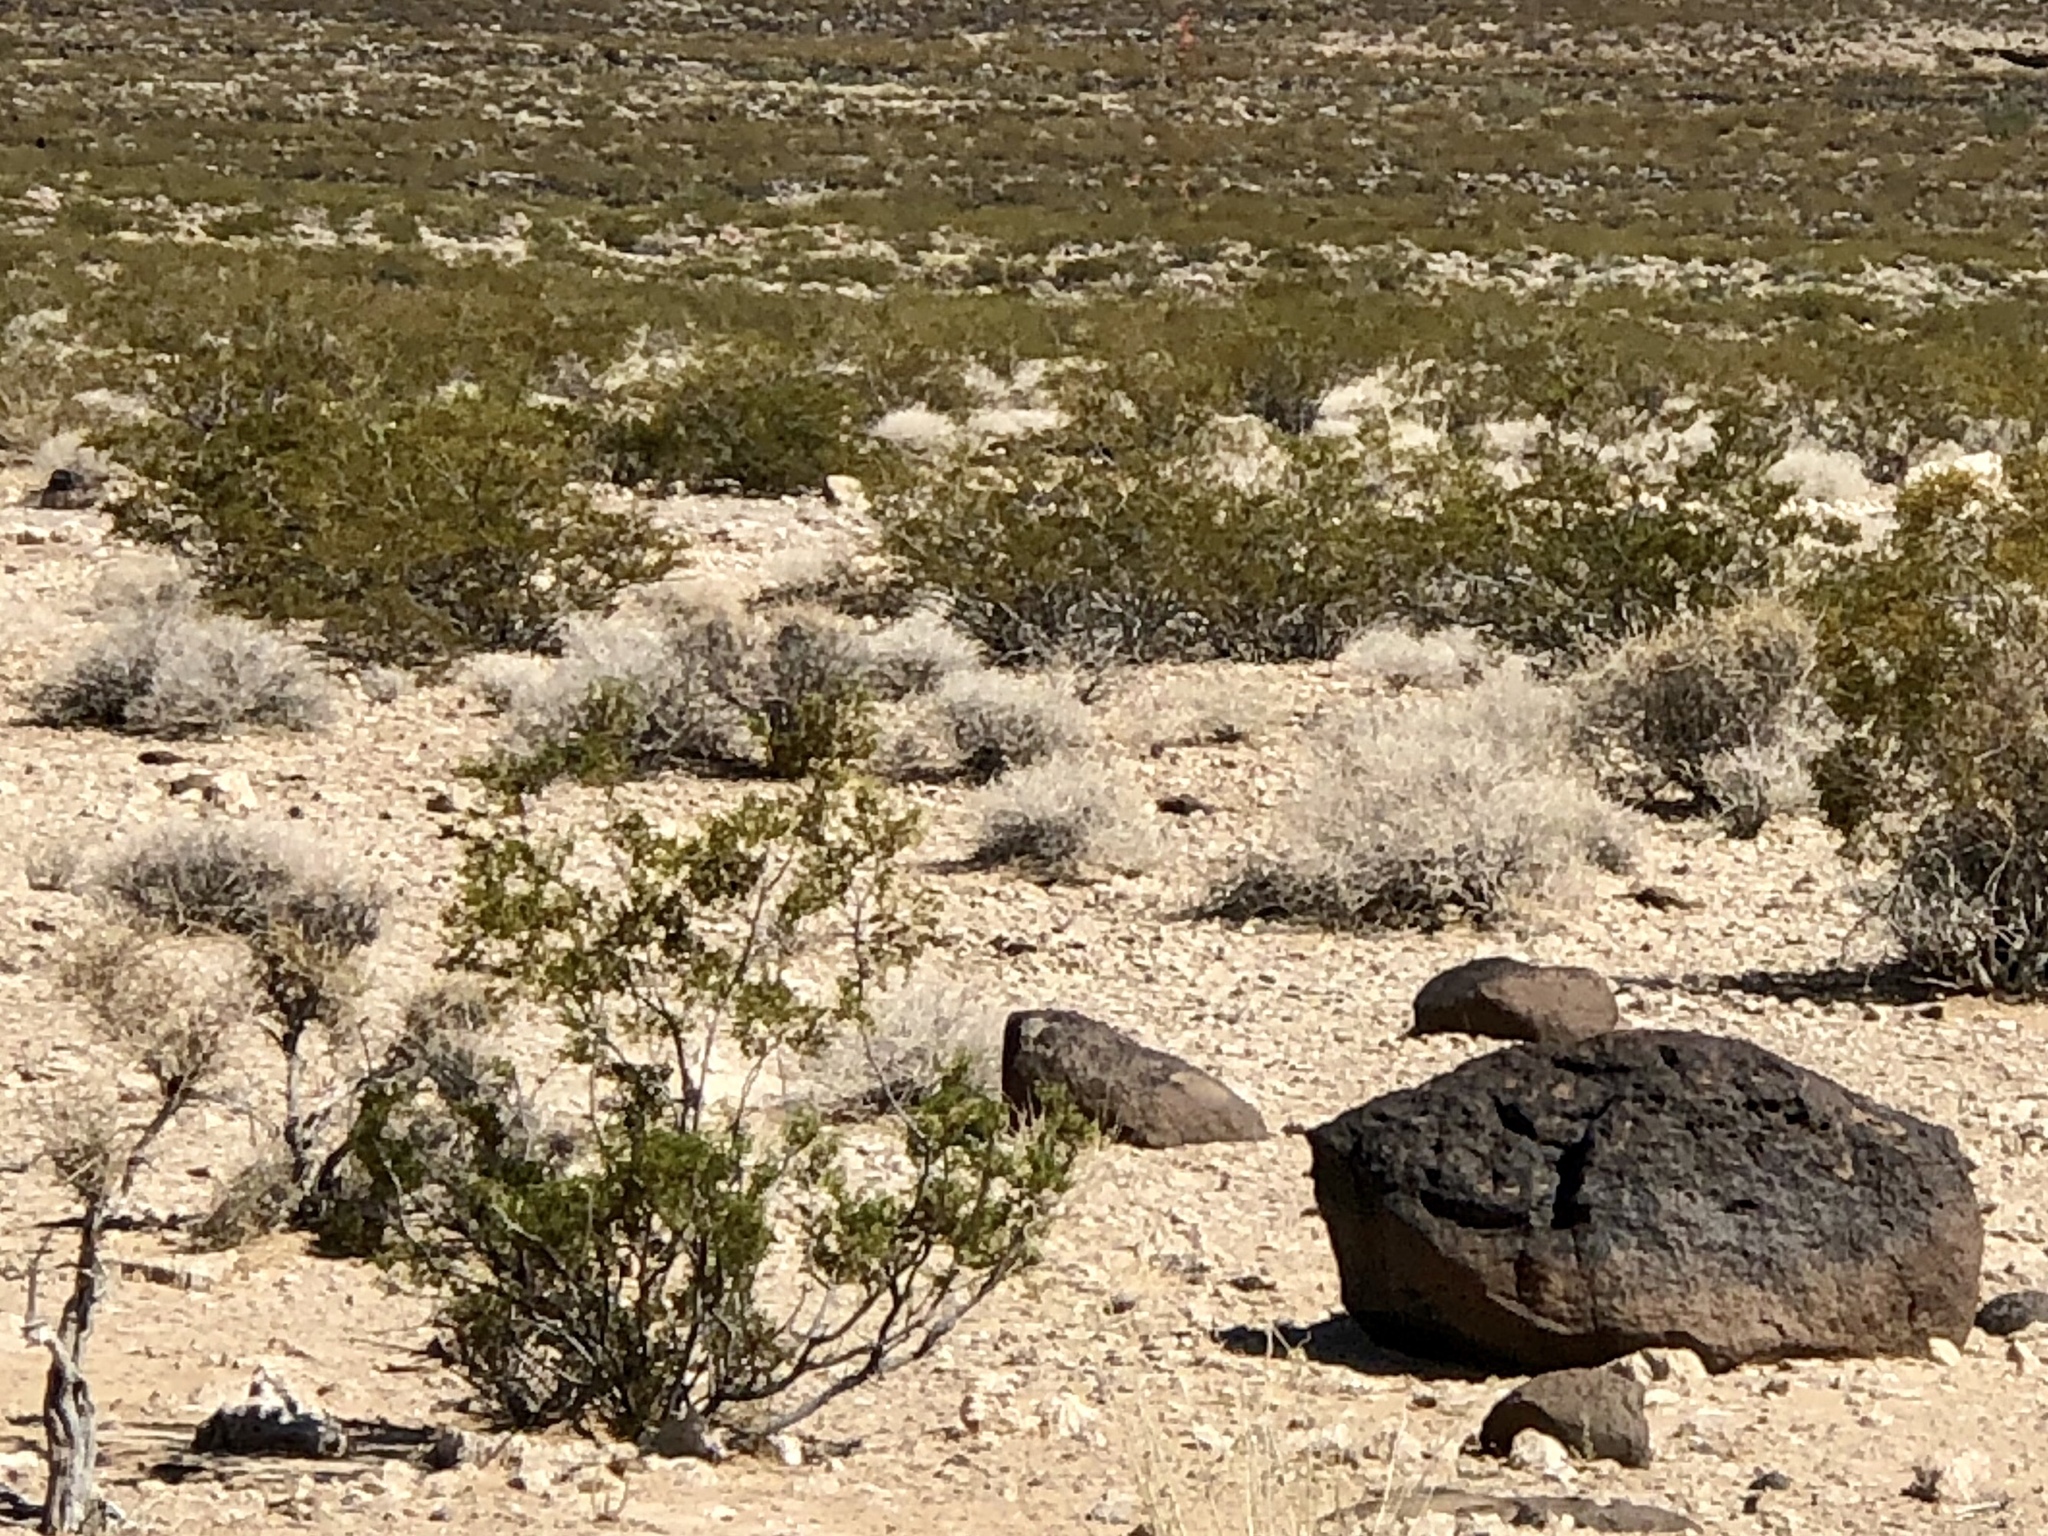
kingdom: Plantae
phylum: Tracheophyta
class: Magnoliopsida
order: Zygophyllales
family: Zygophyllaceae
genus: Larrea
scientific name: Larrea tridentata
